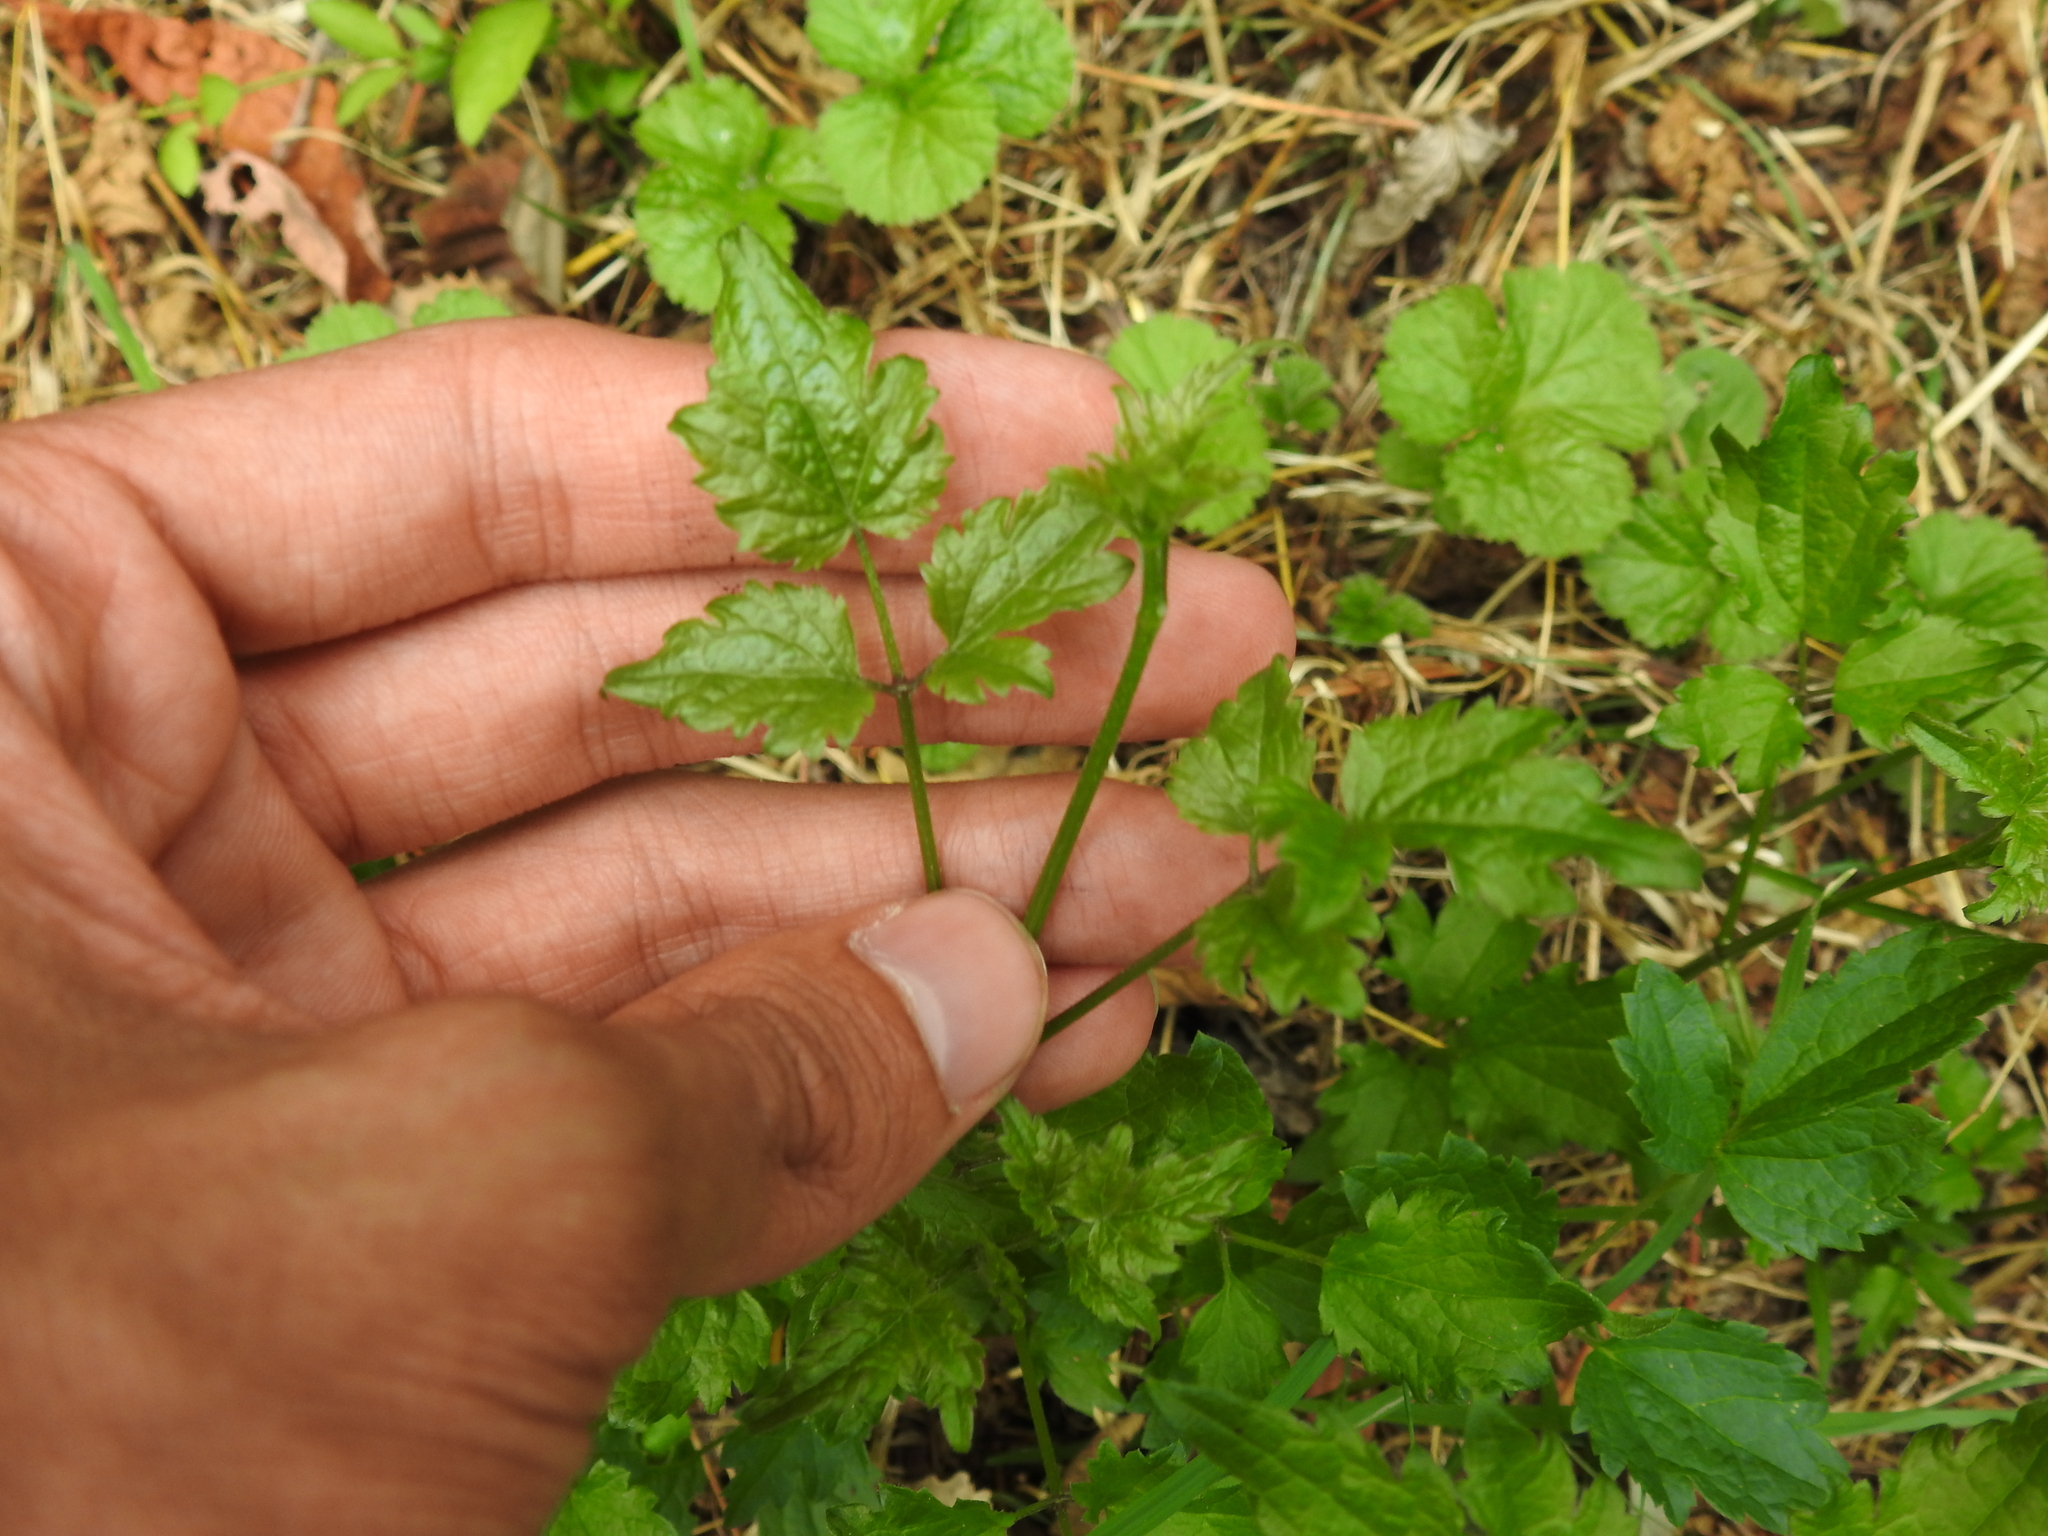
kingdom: Plantae
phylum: Tracheophyta
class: Magnoliopsida
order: Ranunculales
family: Ranunculaceae
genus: Clematis
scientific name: Clematis vitalba
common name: Evergreen clematis
